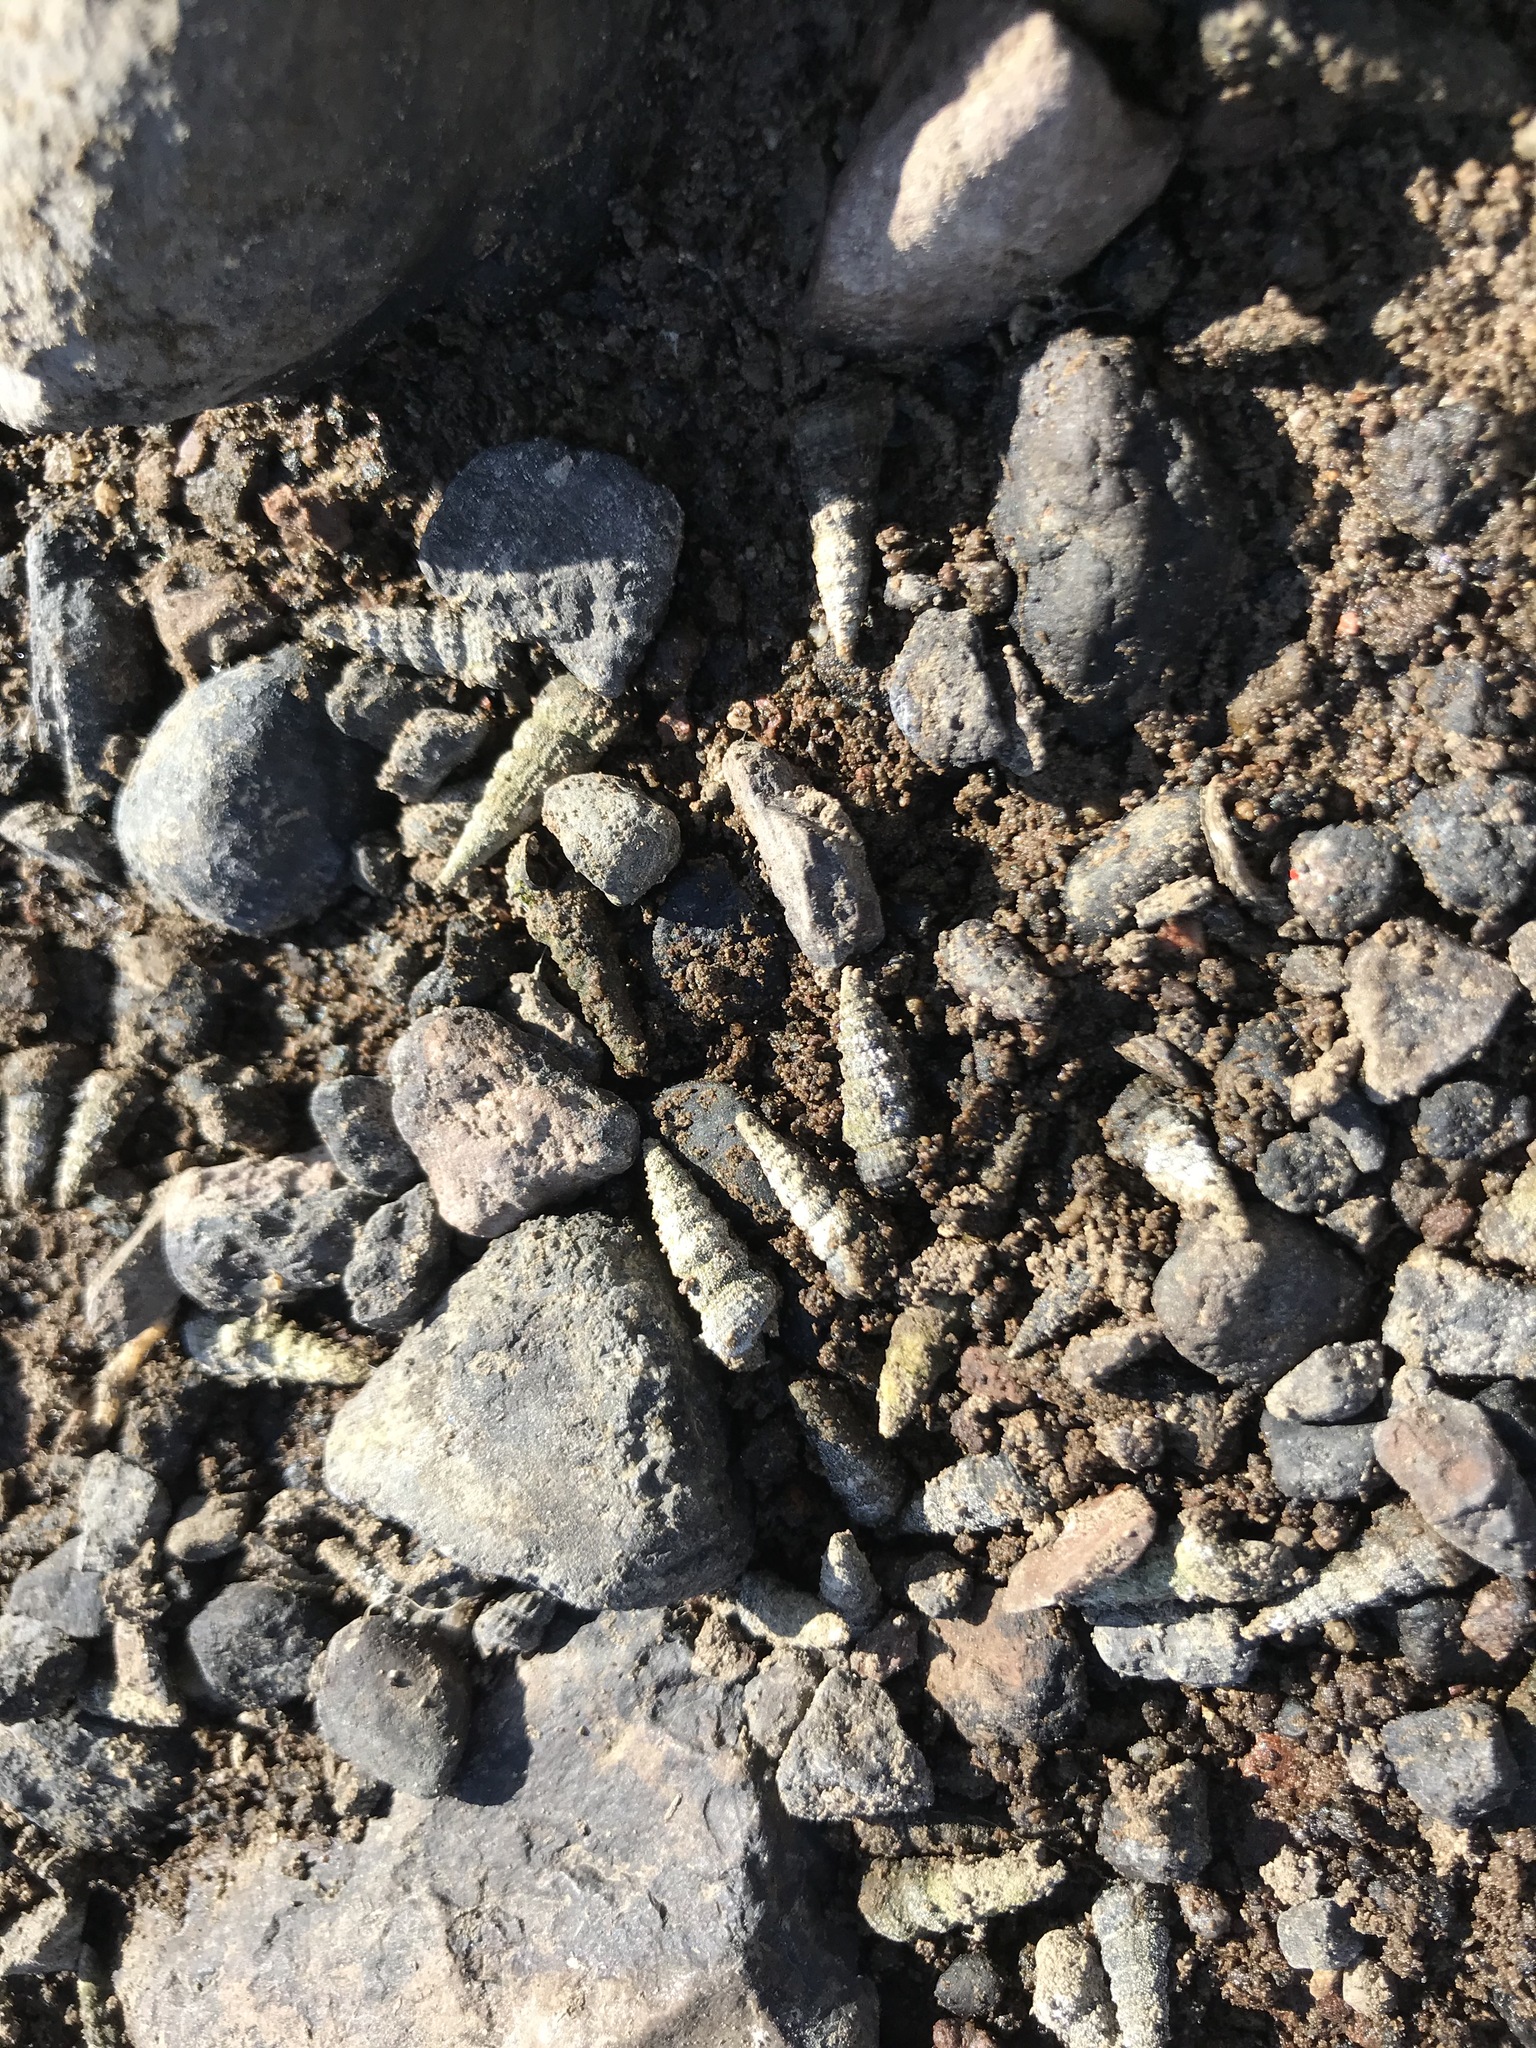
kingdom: Animalia
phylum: Mollusca
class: Gastropoda
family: Potamididae
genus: Cerithideopsis
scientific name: Cerithideopsis californica
